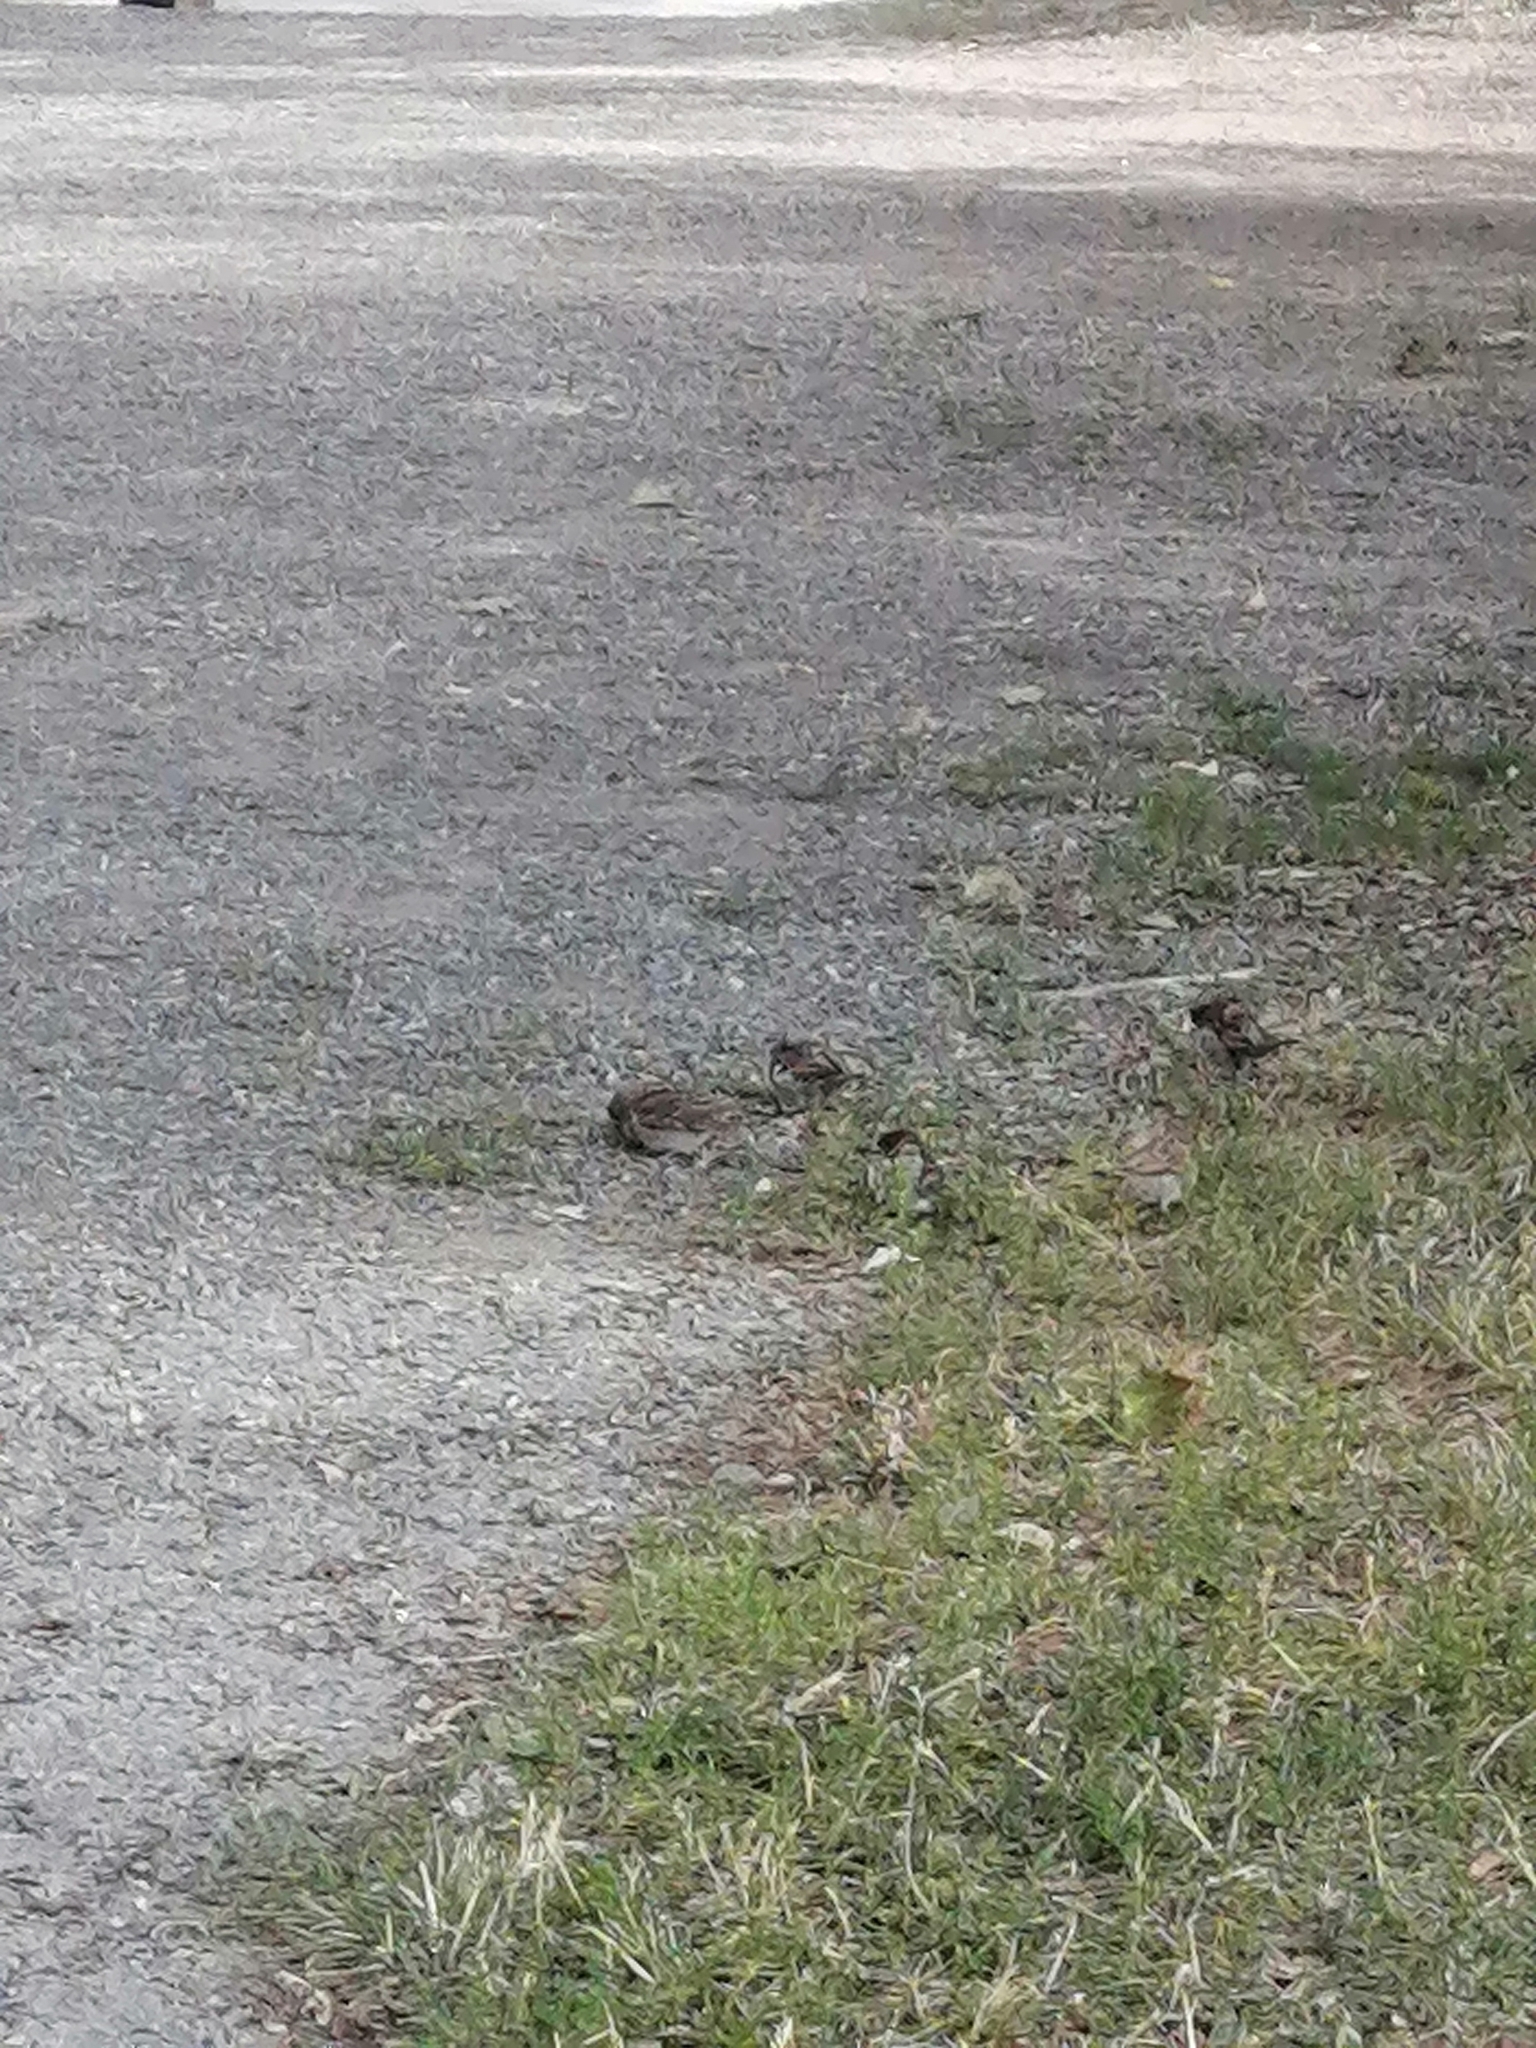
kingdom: Animalia
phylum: Chordata
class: Aves
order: Passeriformes
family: Passeridae
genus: Passer
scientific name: Passer domesticus
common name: House sparrow
